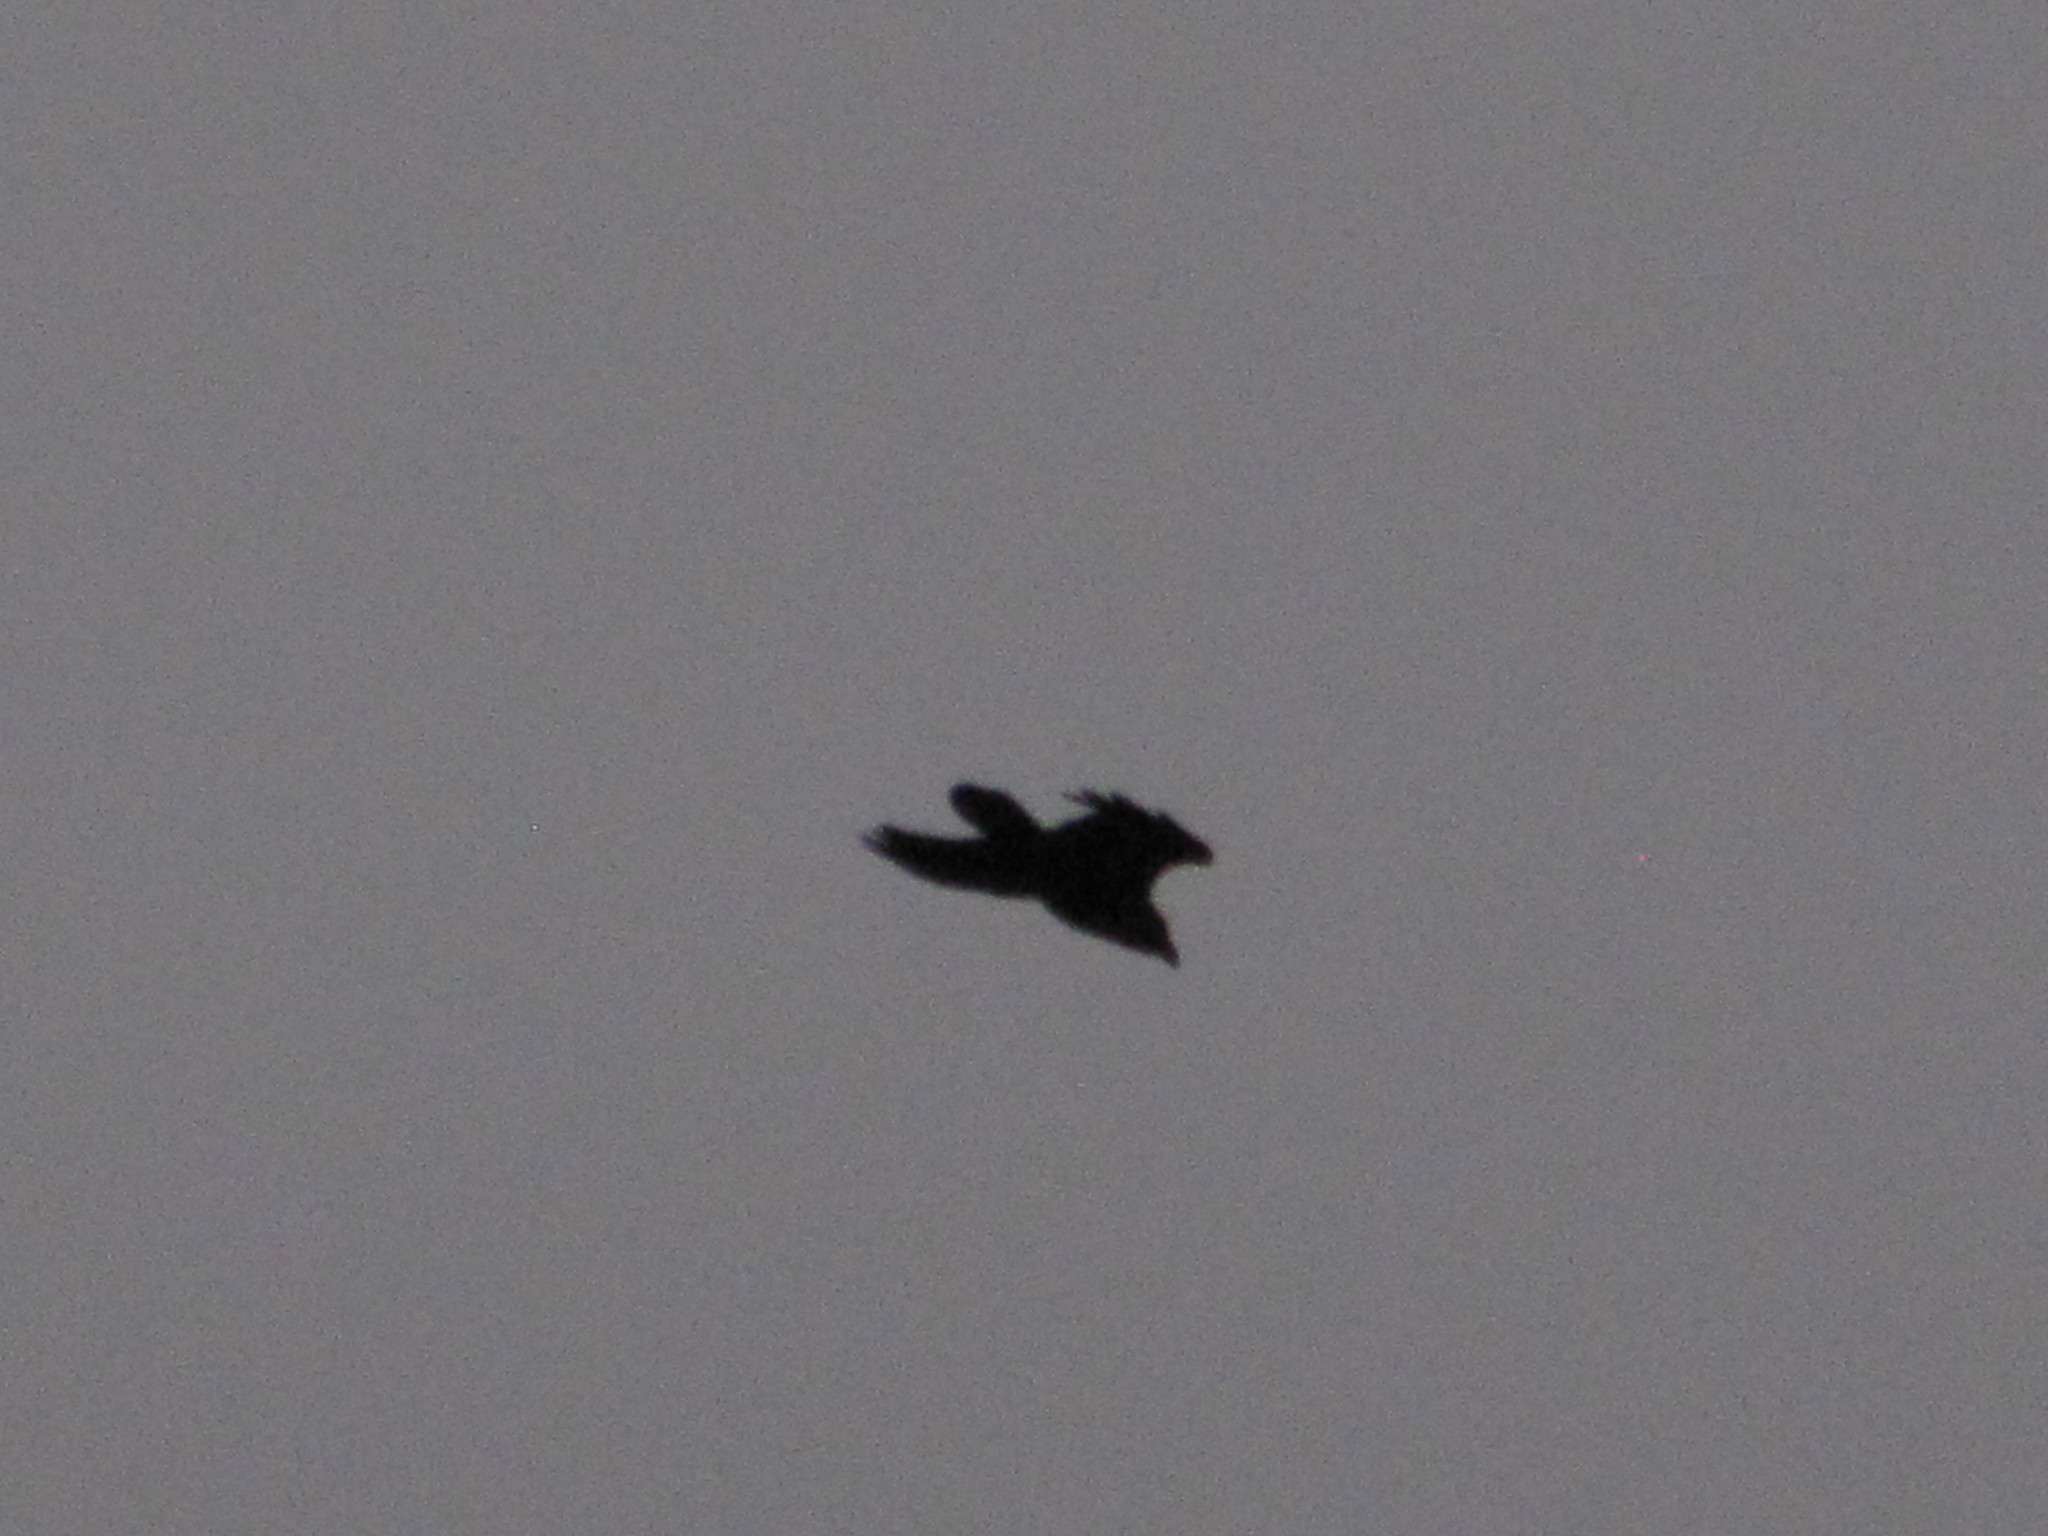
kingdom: Animalia
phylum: Chordata
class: Aves
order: Passeriformes
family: Corvidae
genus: Corvus
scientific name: Corvus corax
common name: Common raven
